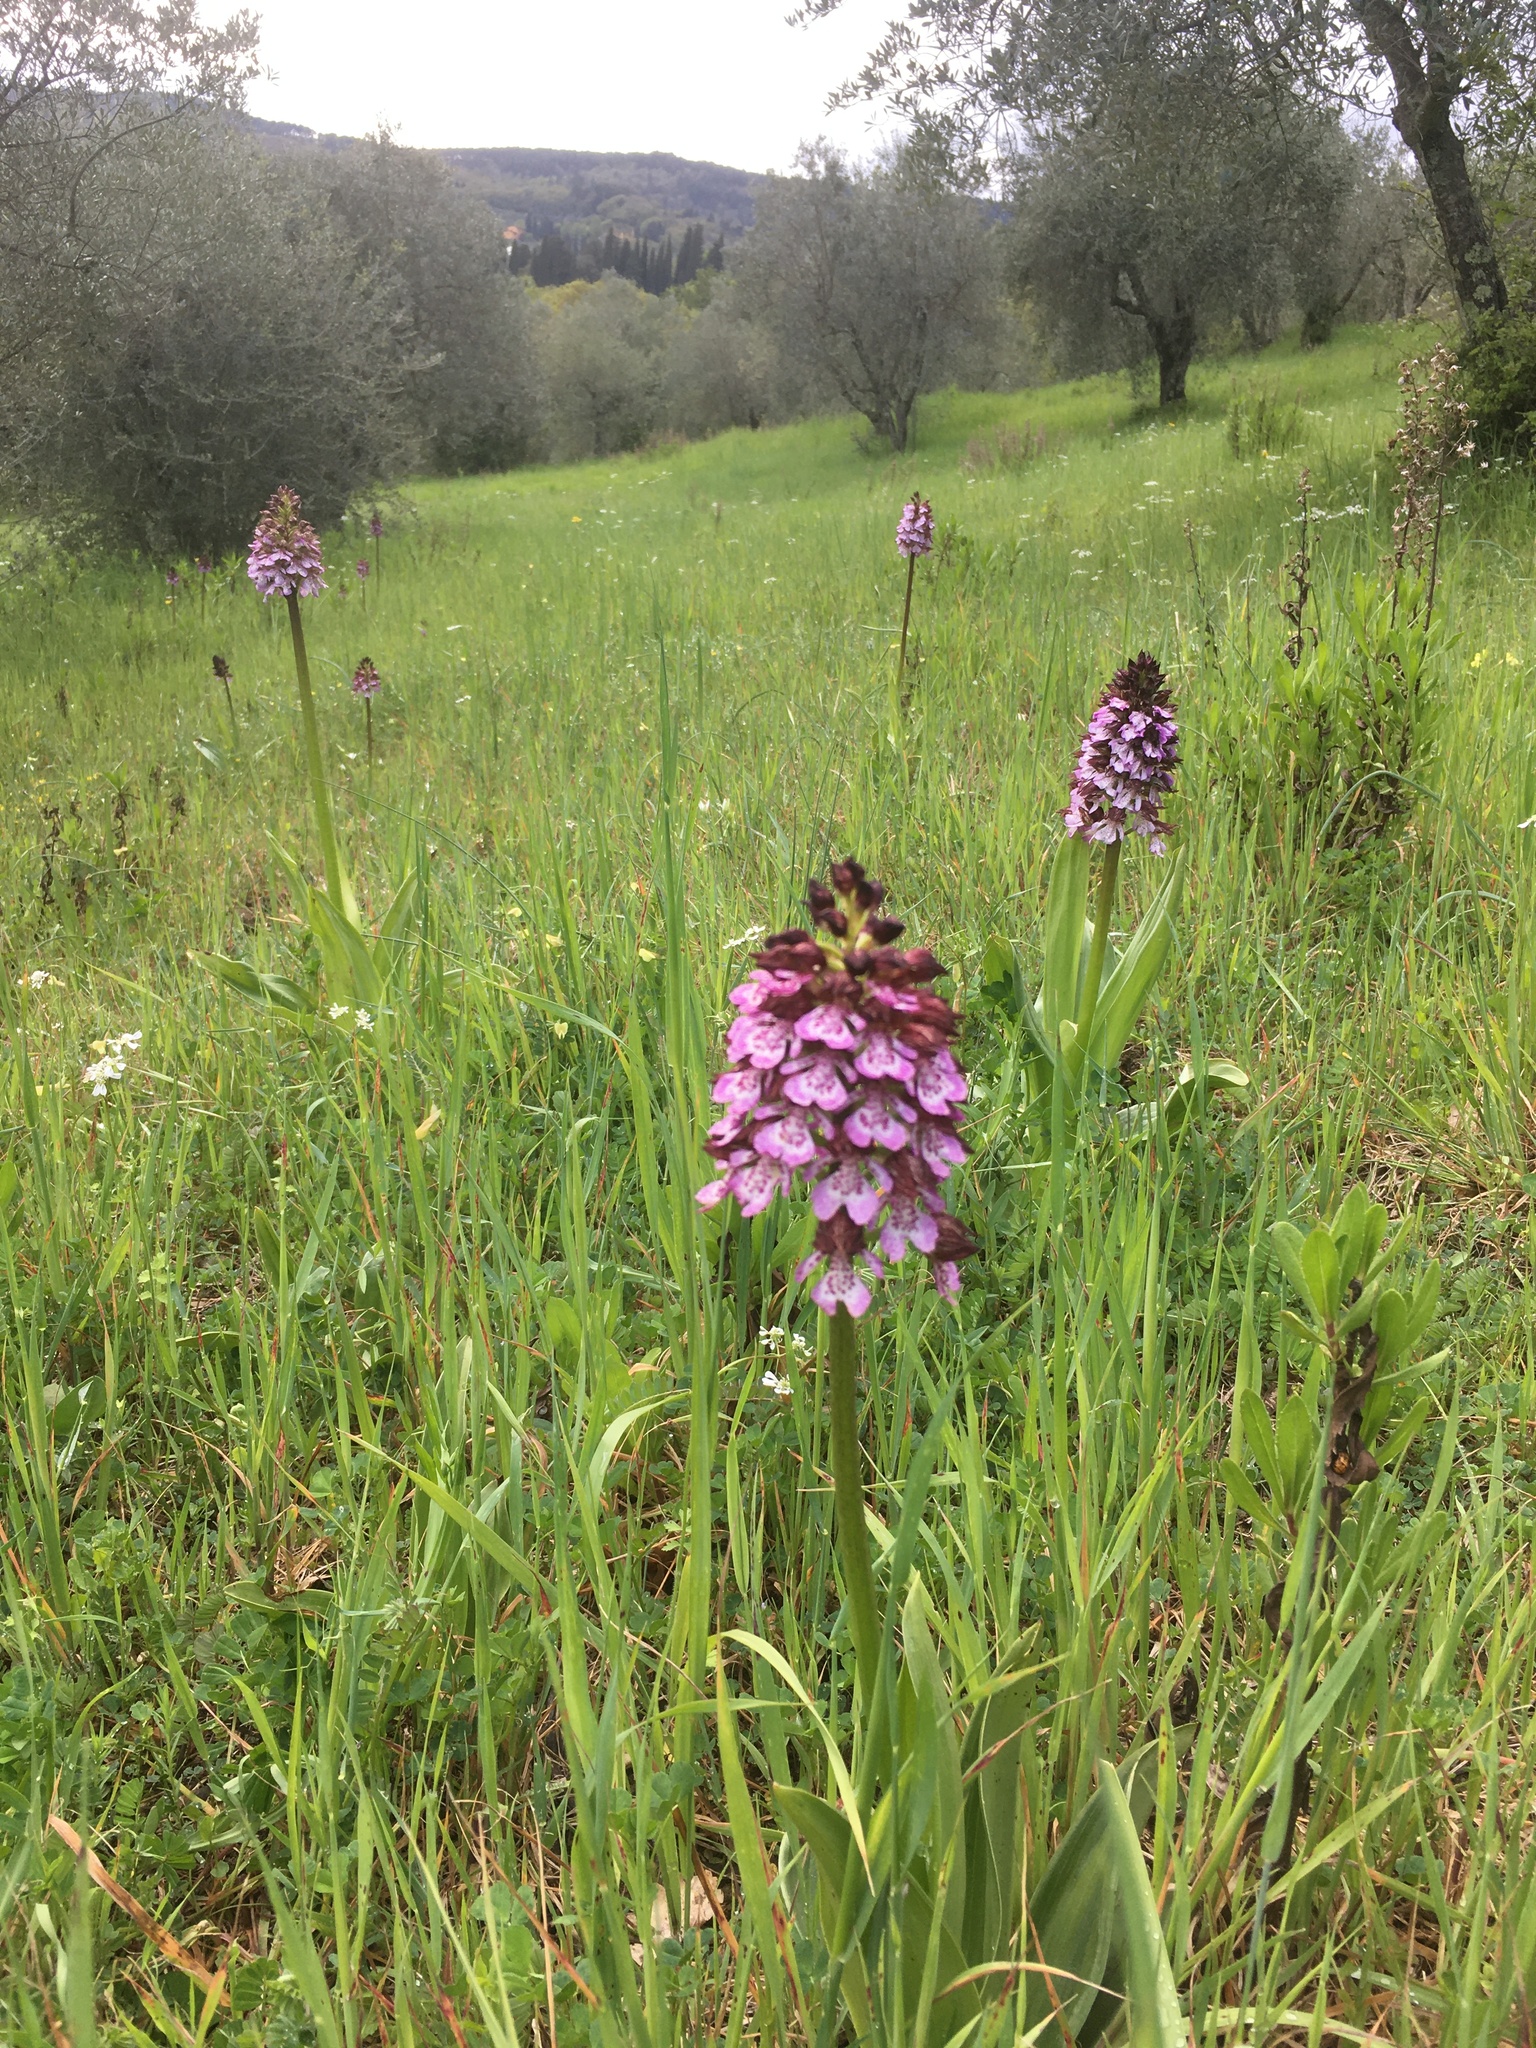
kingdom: Plantae
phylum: Tracheophyta
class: Liliopsida
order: Asparagales
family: Orchidaceae
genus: Orchis
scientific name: Orchis purpurea
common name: Lady orchid
